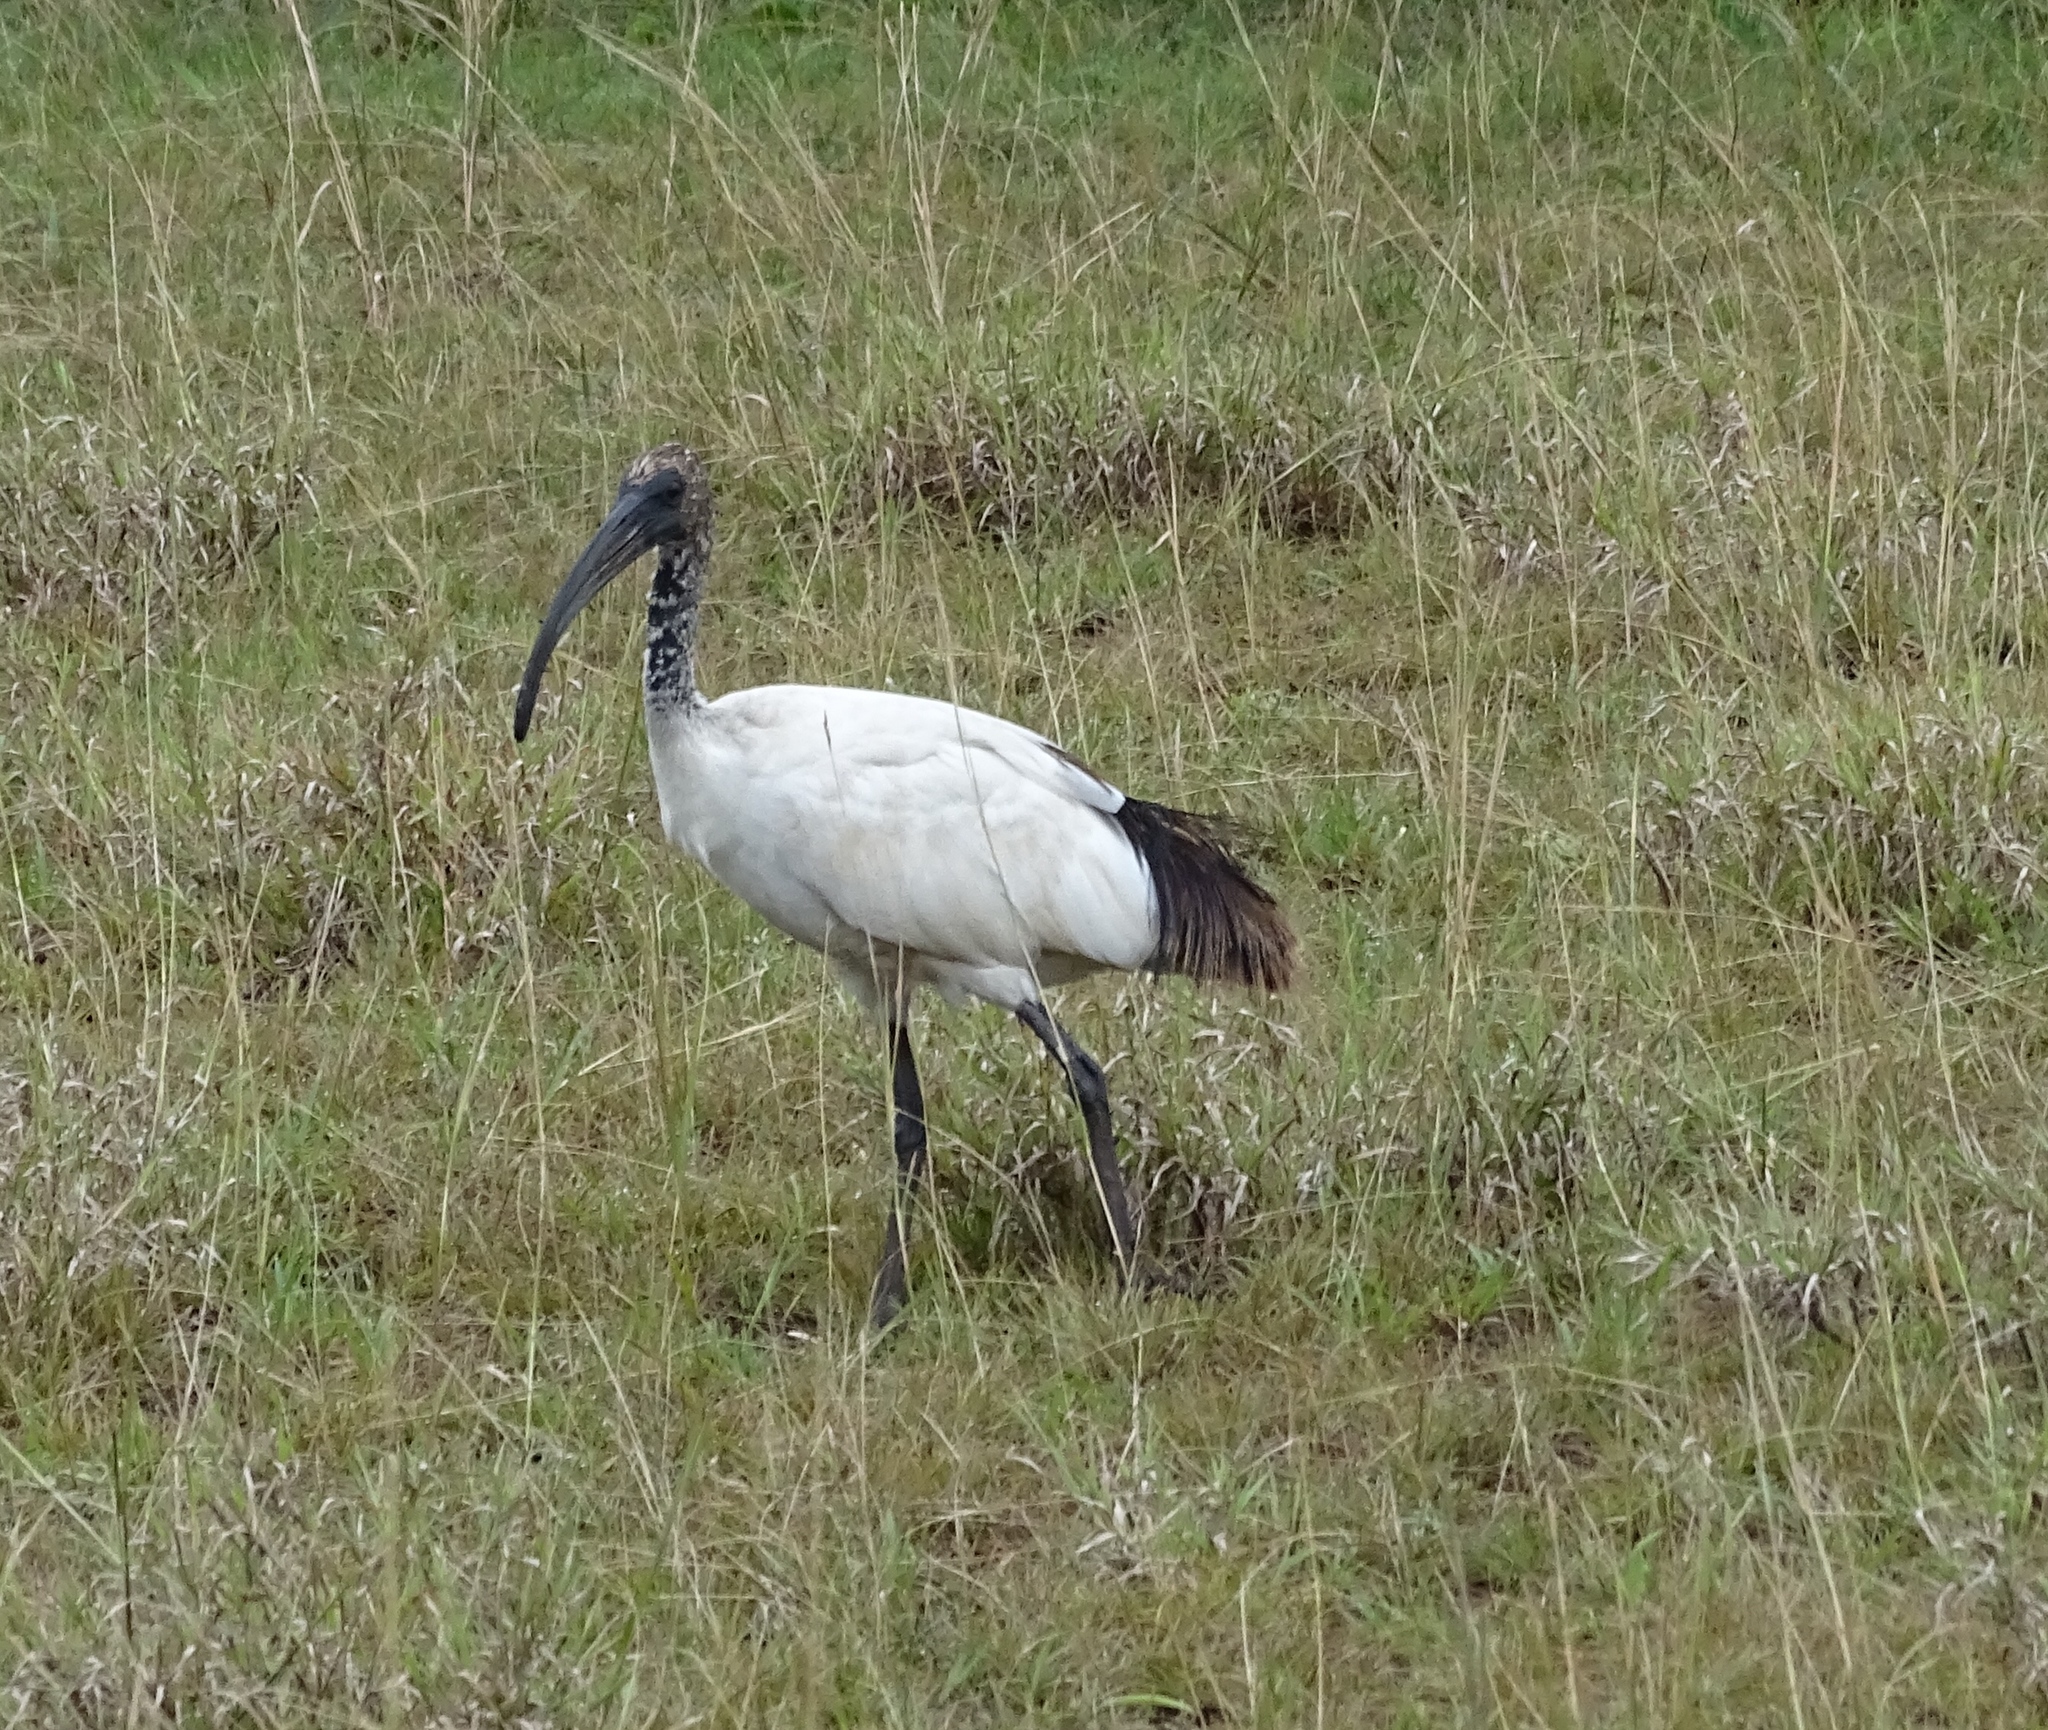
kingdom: Animalia
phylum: Chordata
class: Aves
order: Pelecaniformes
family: Threskiornithidae
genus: Threskiornis
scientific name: Threskiornis aethiopicus
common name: Sacred ibis
